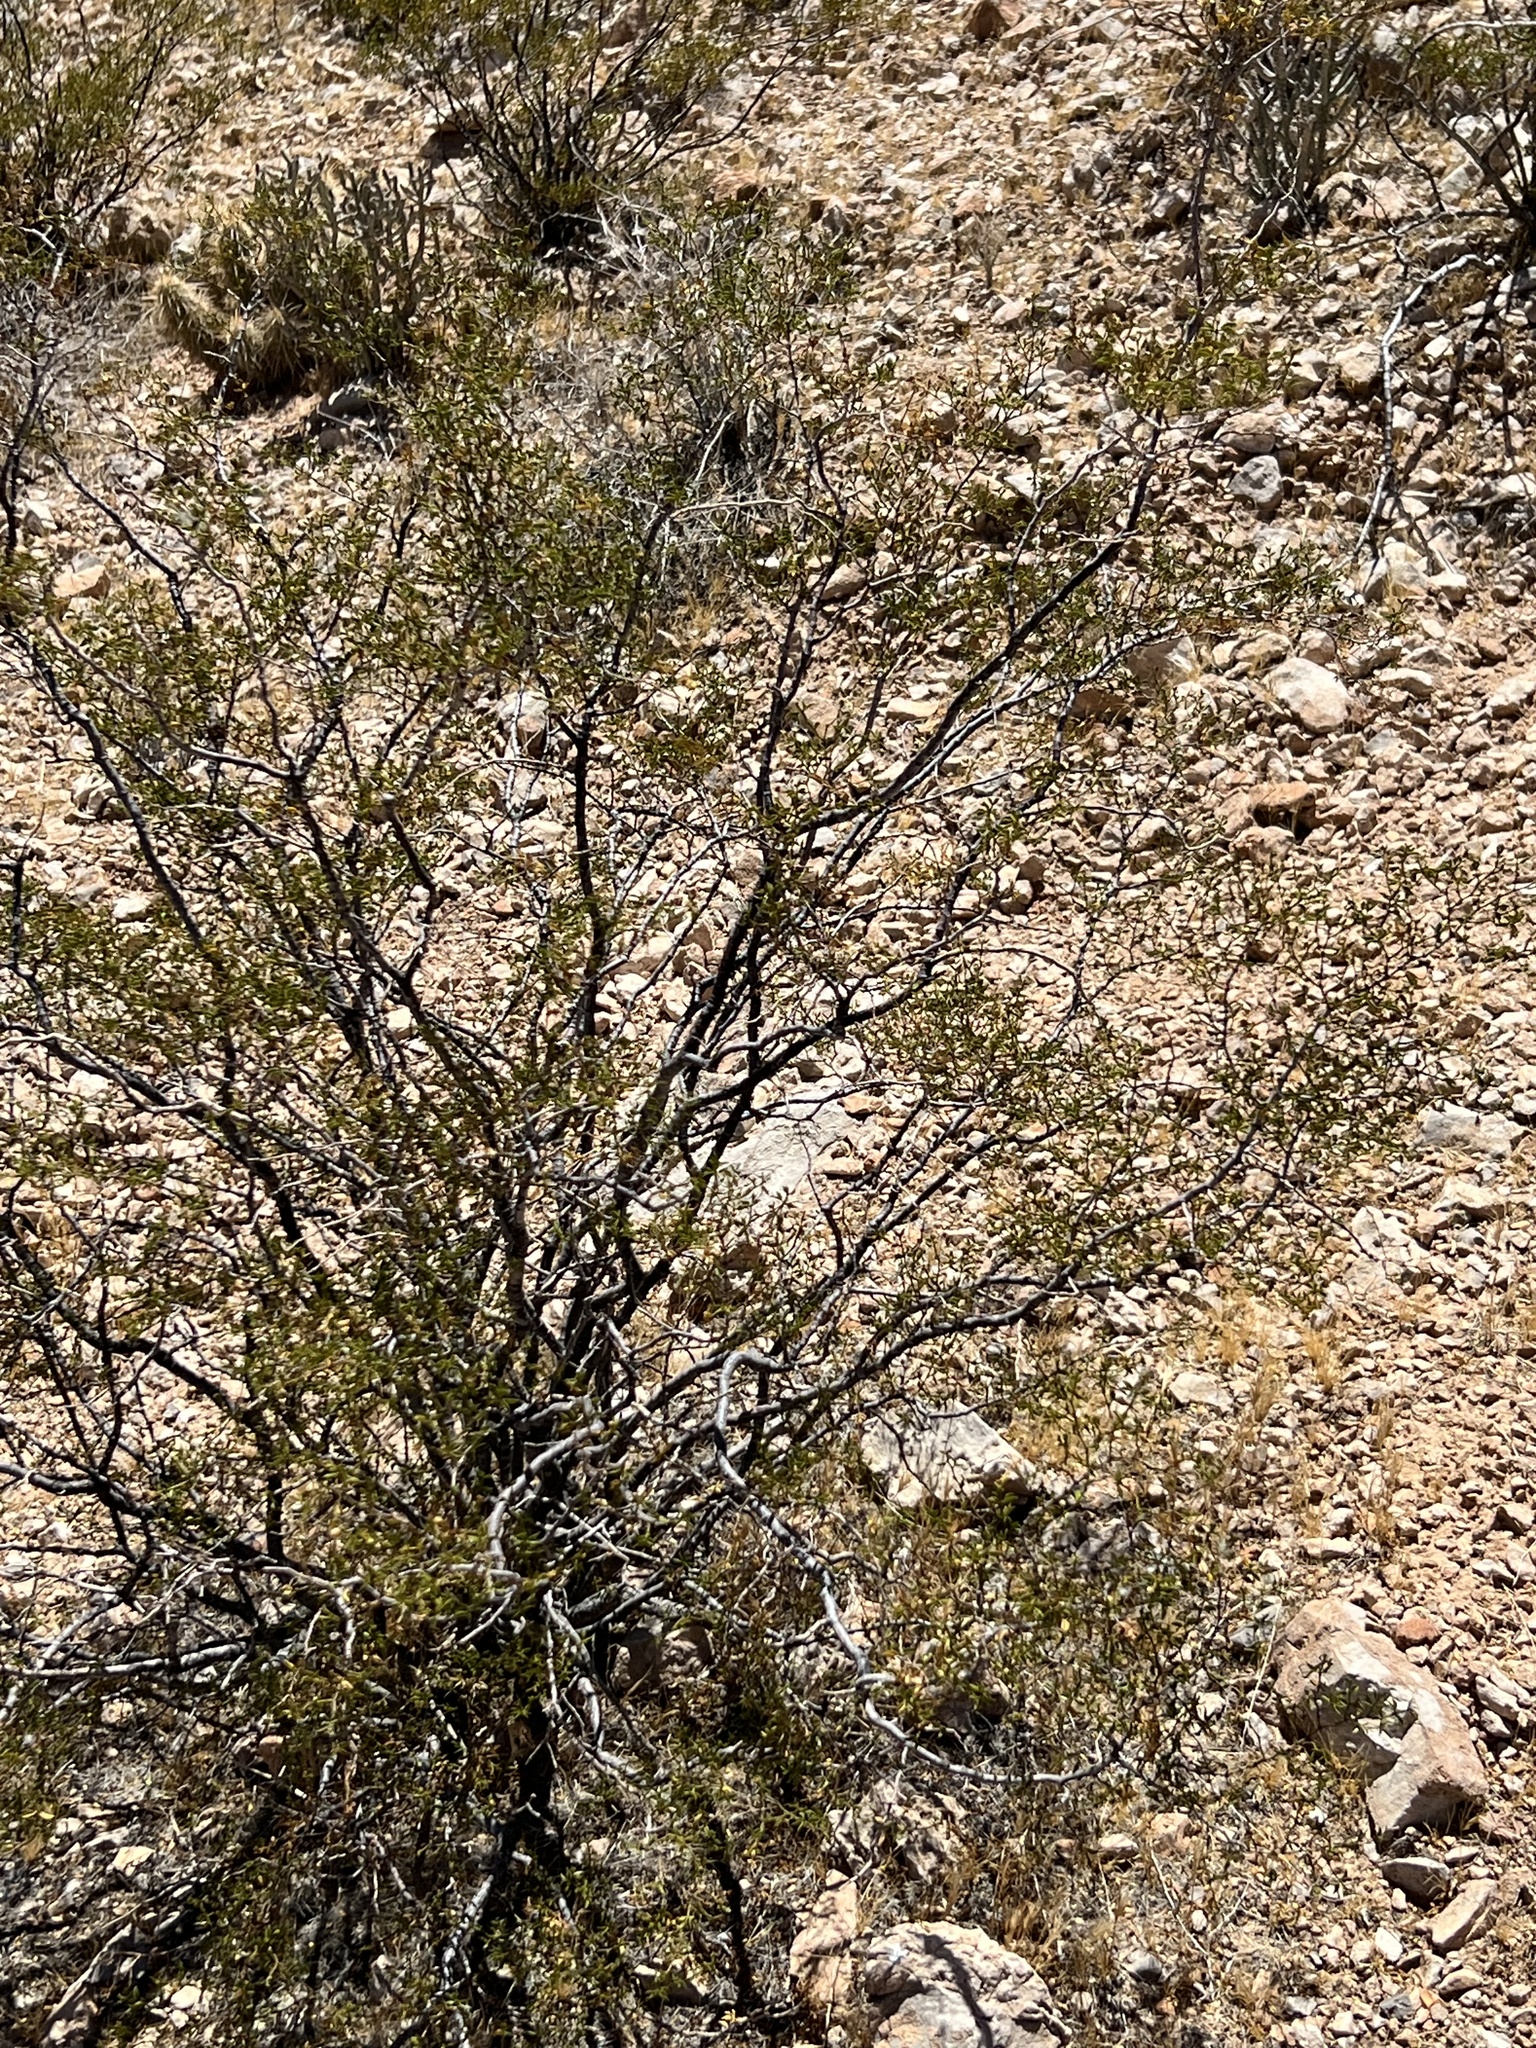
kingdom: Plantae
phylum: Tracheophyta
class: Magnoliopsida
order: Zygophyllales
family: Zygophyllaceae
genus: Larrea
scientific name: Larrea tridentata
